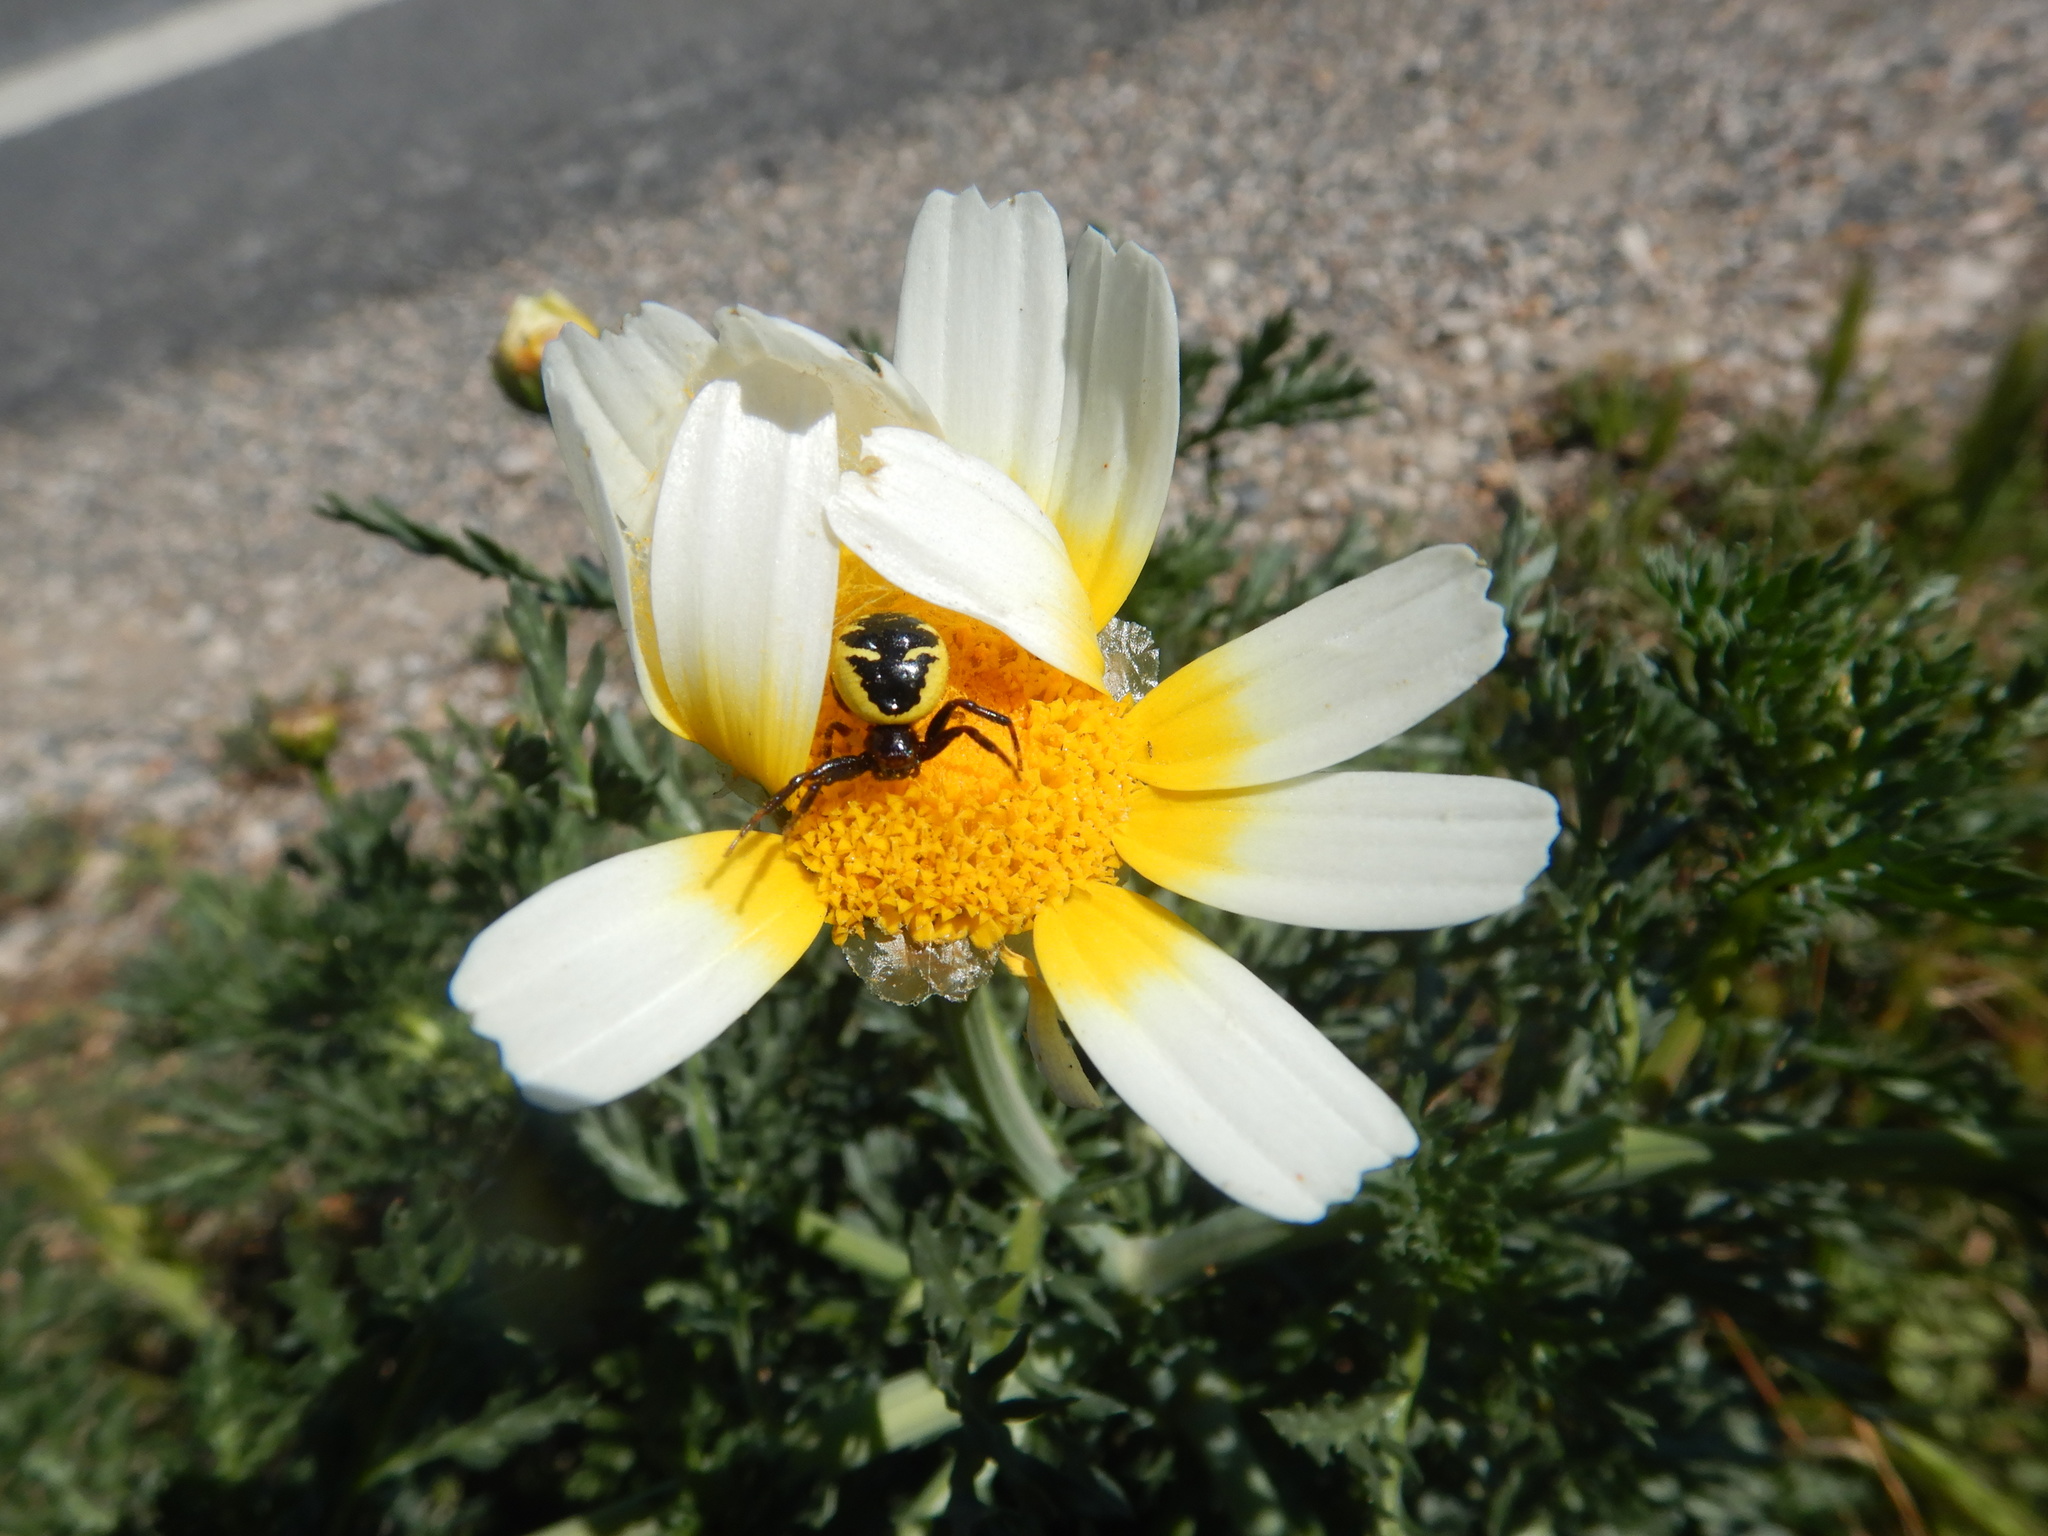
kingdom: Plantae
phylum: Tracheophyta
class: Magnoliopsida
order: Asterales
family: Asteraceae
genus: Glebionis
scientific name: Glebionis coronaria
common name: Crowndaisy
